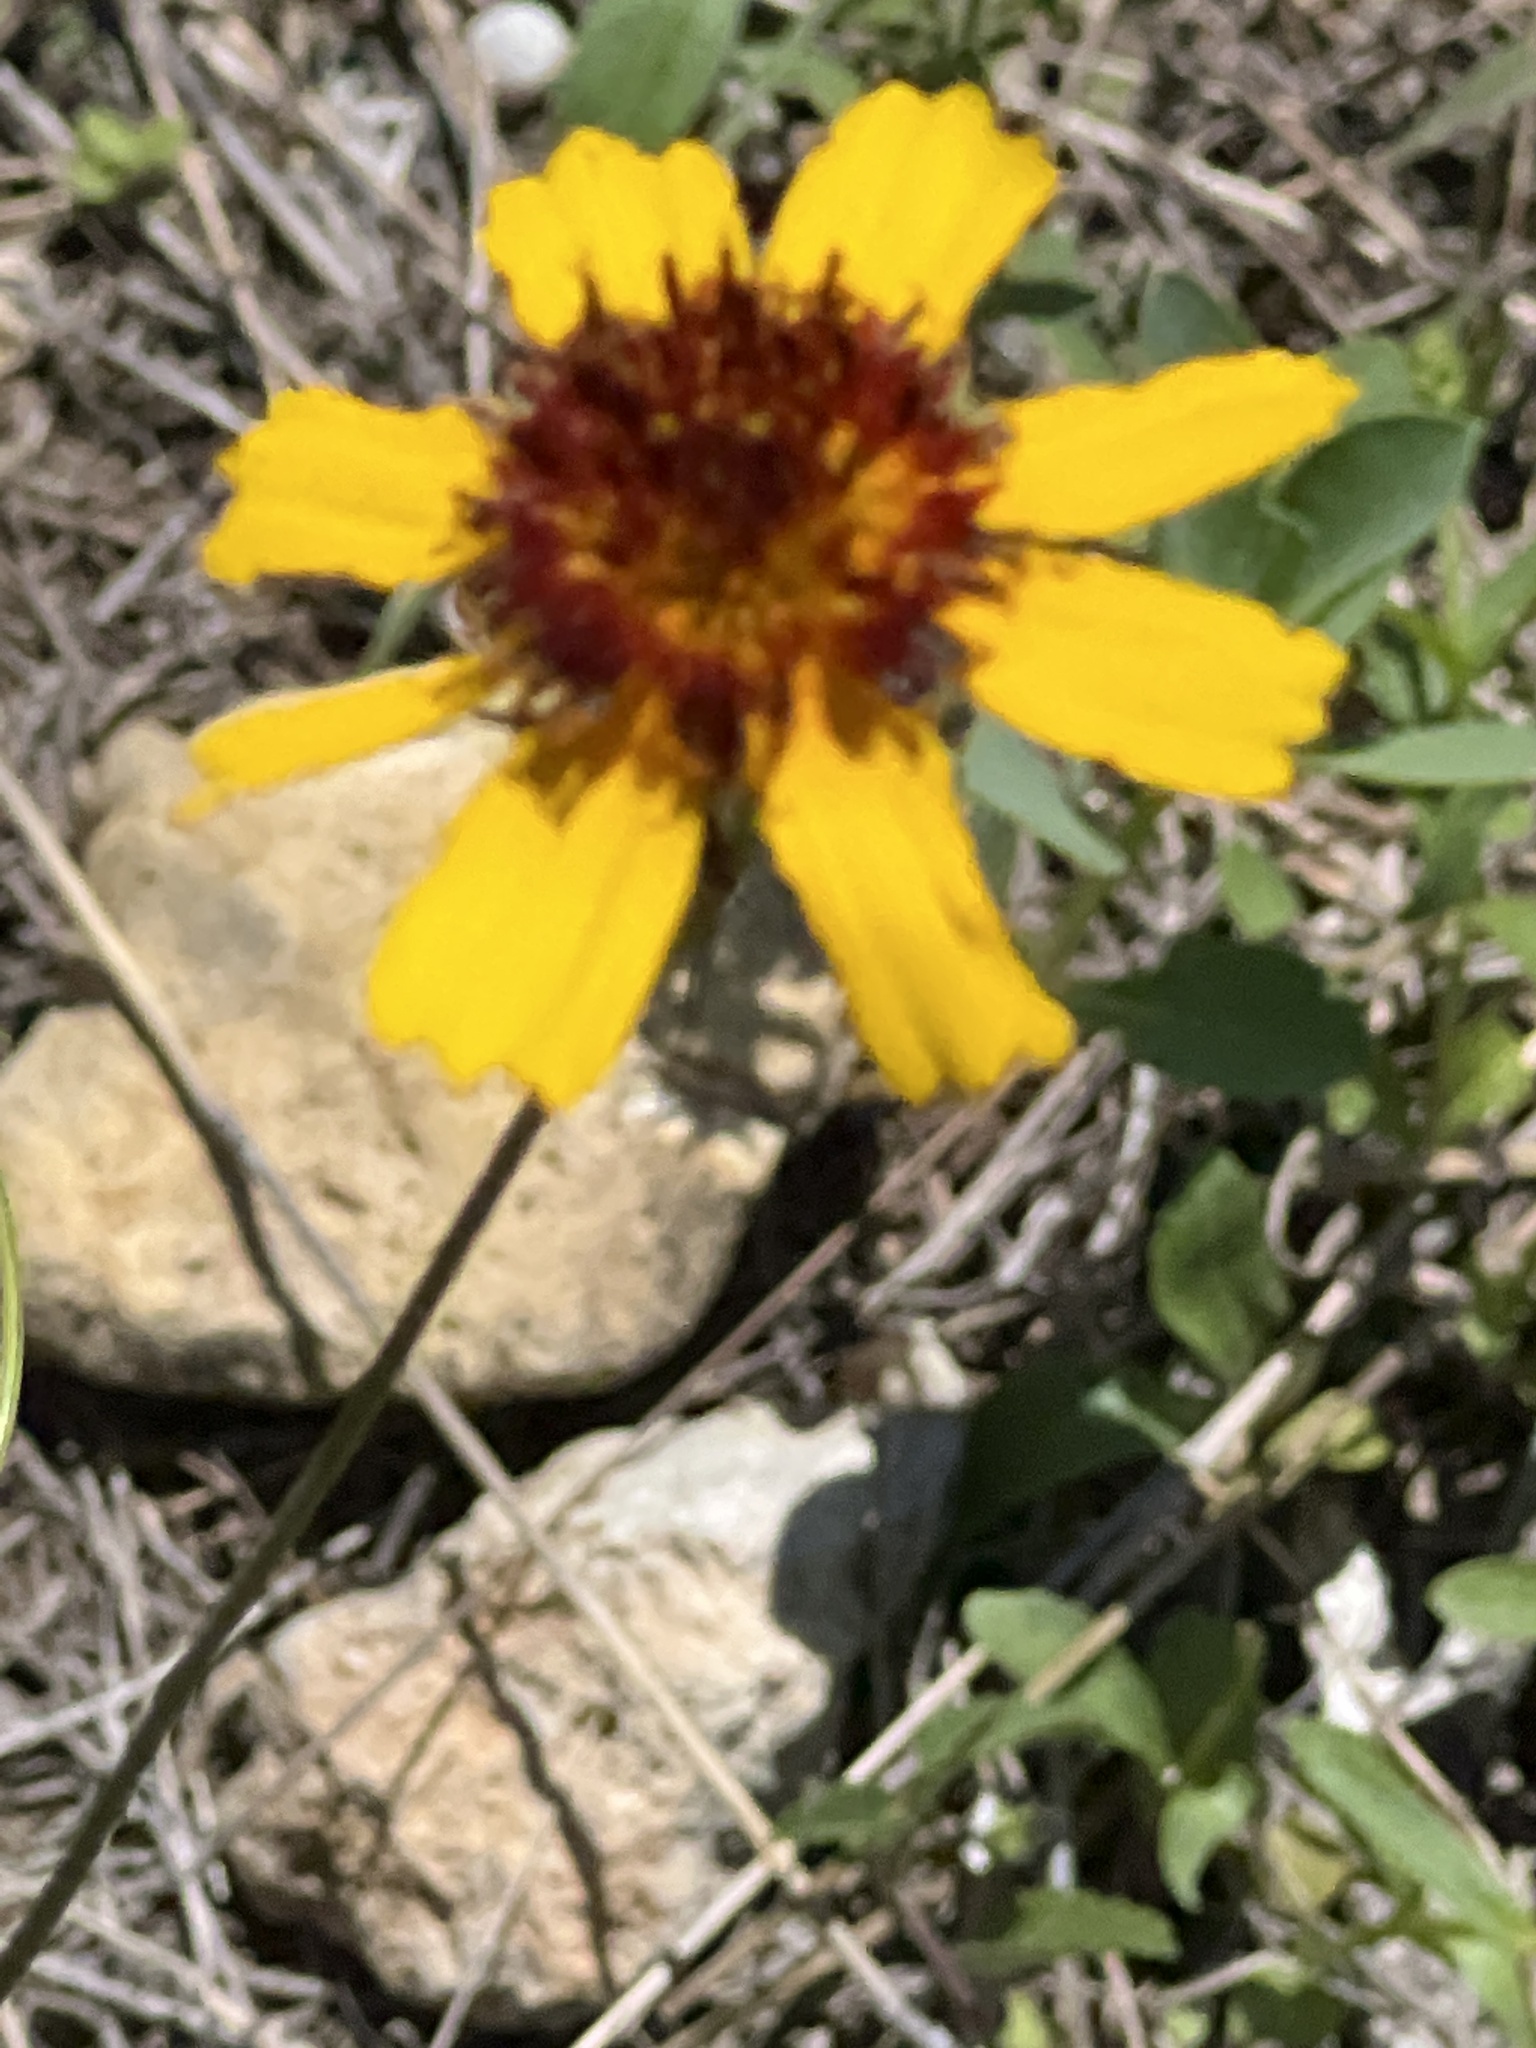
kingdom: Plantae
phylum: Tracheophyta
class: Magnoliopsida
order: Asterales
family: Asteraceae
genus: Thelesperma
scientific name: Thelesperma filifolium
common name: Stiff greenthread
